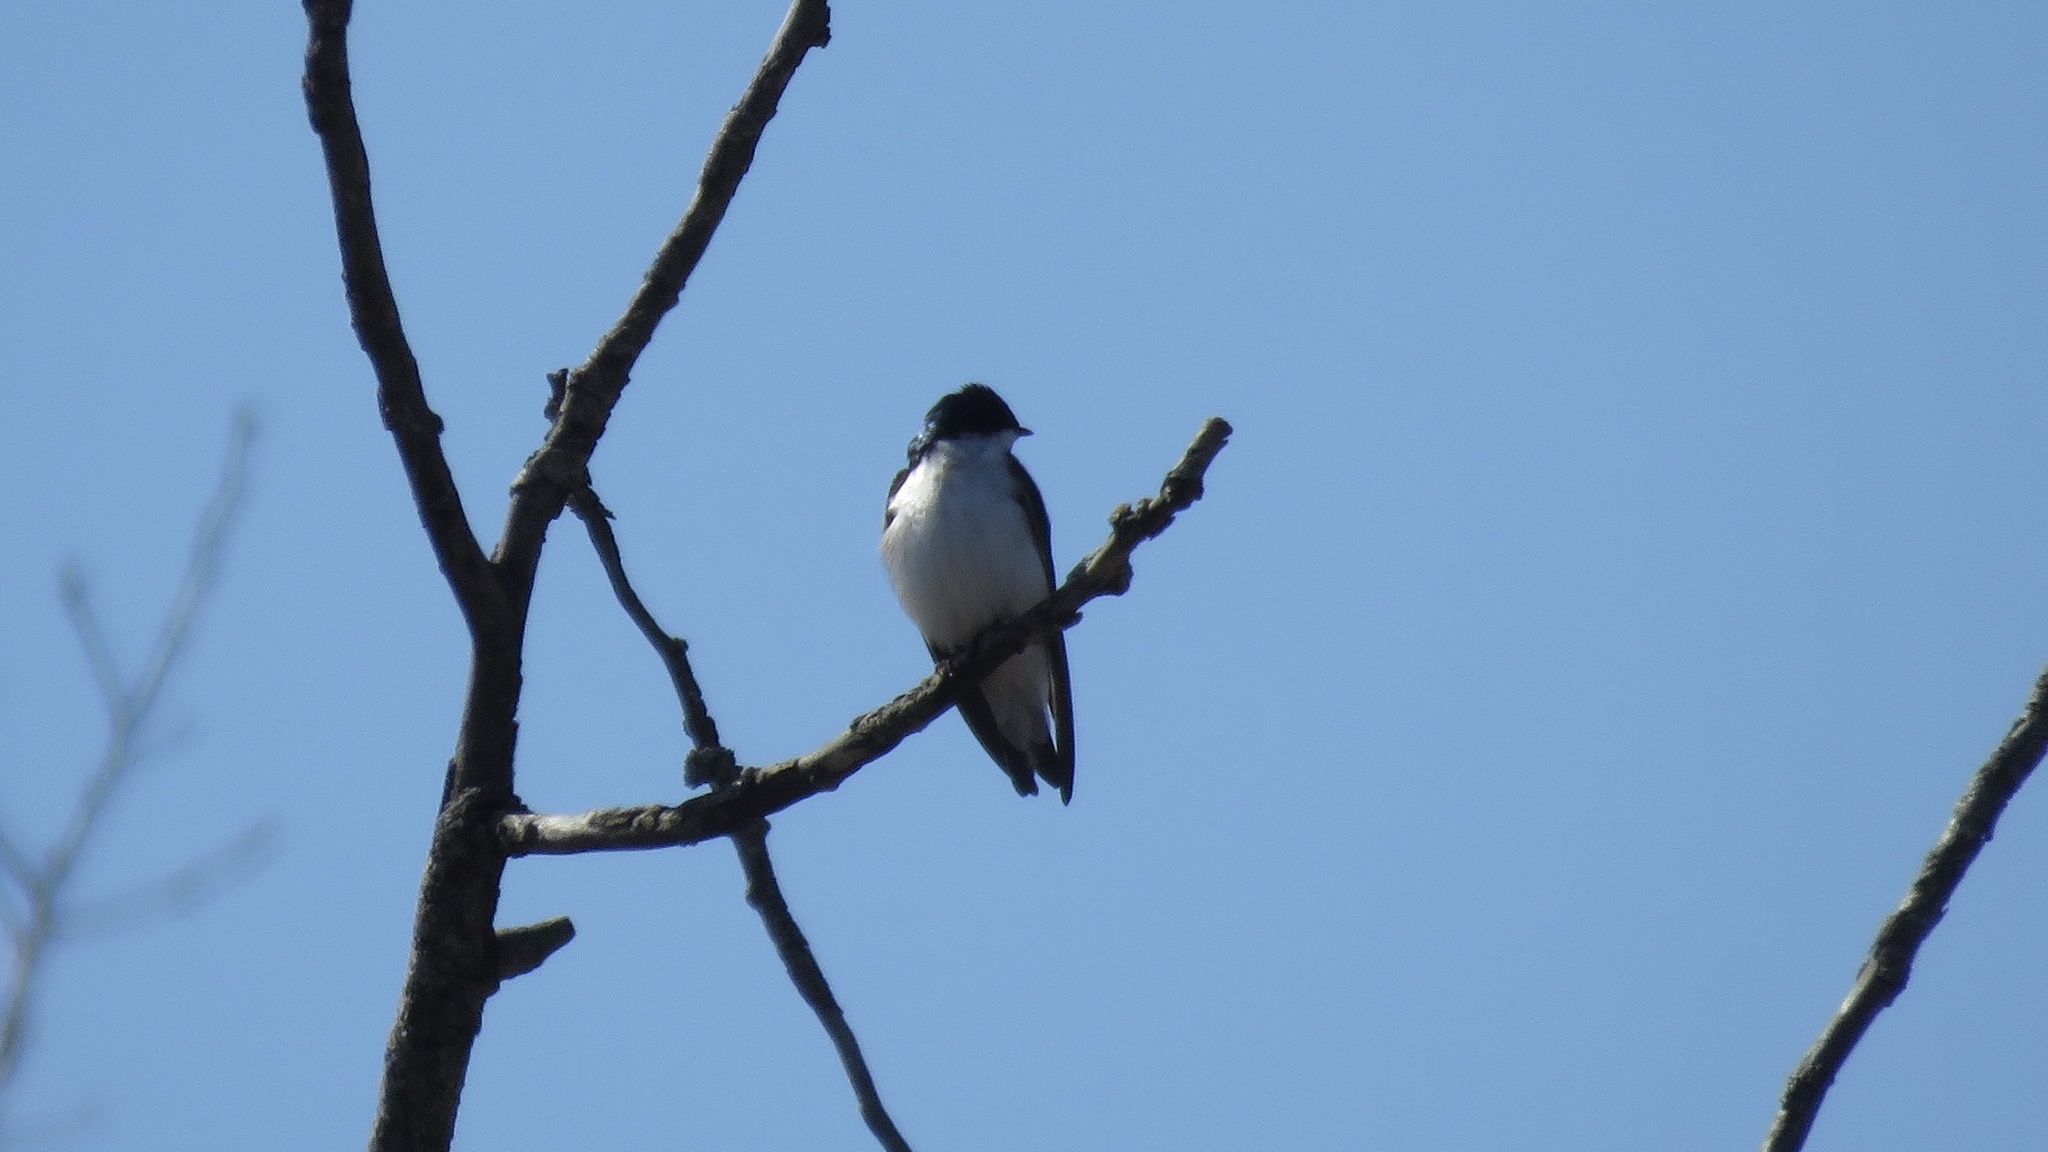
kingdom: Animalia
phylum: Chordata
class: Aves
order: Passeriformes
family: Hirundinidae
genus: Tachycineta
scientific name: Tachycineta bicolor
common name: Tree swallow
